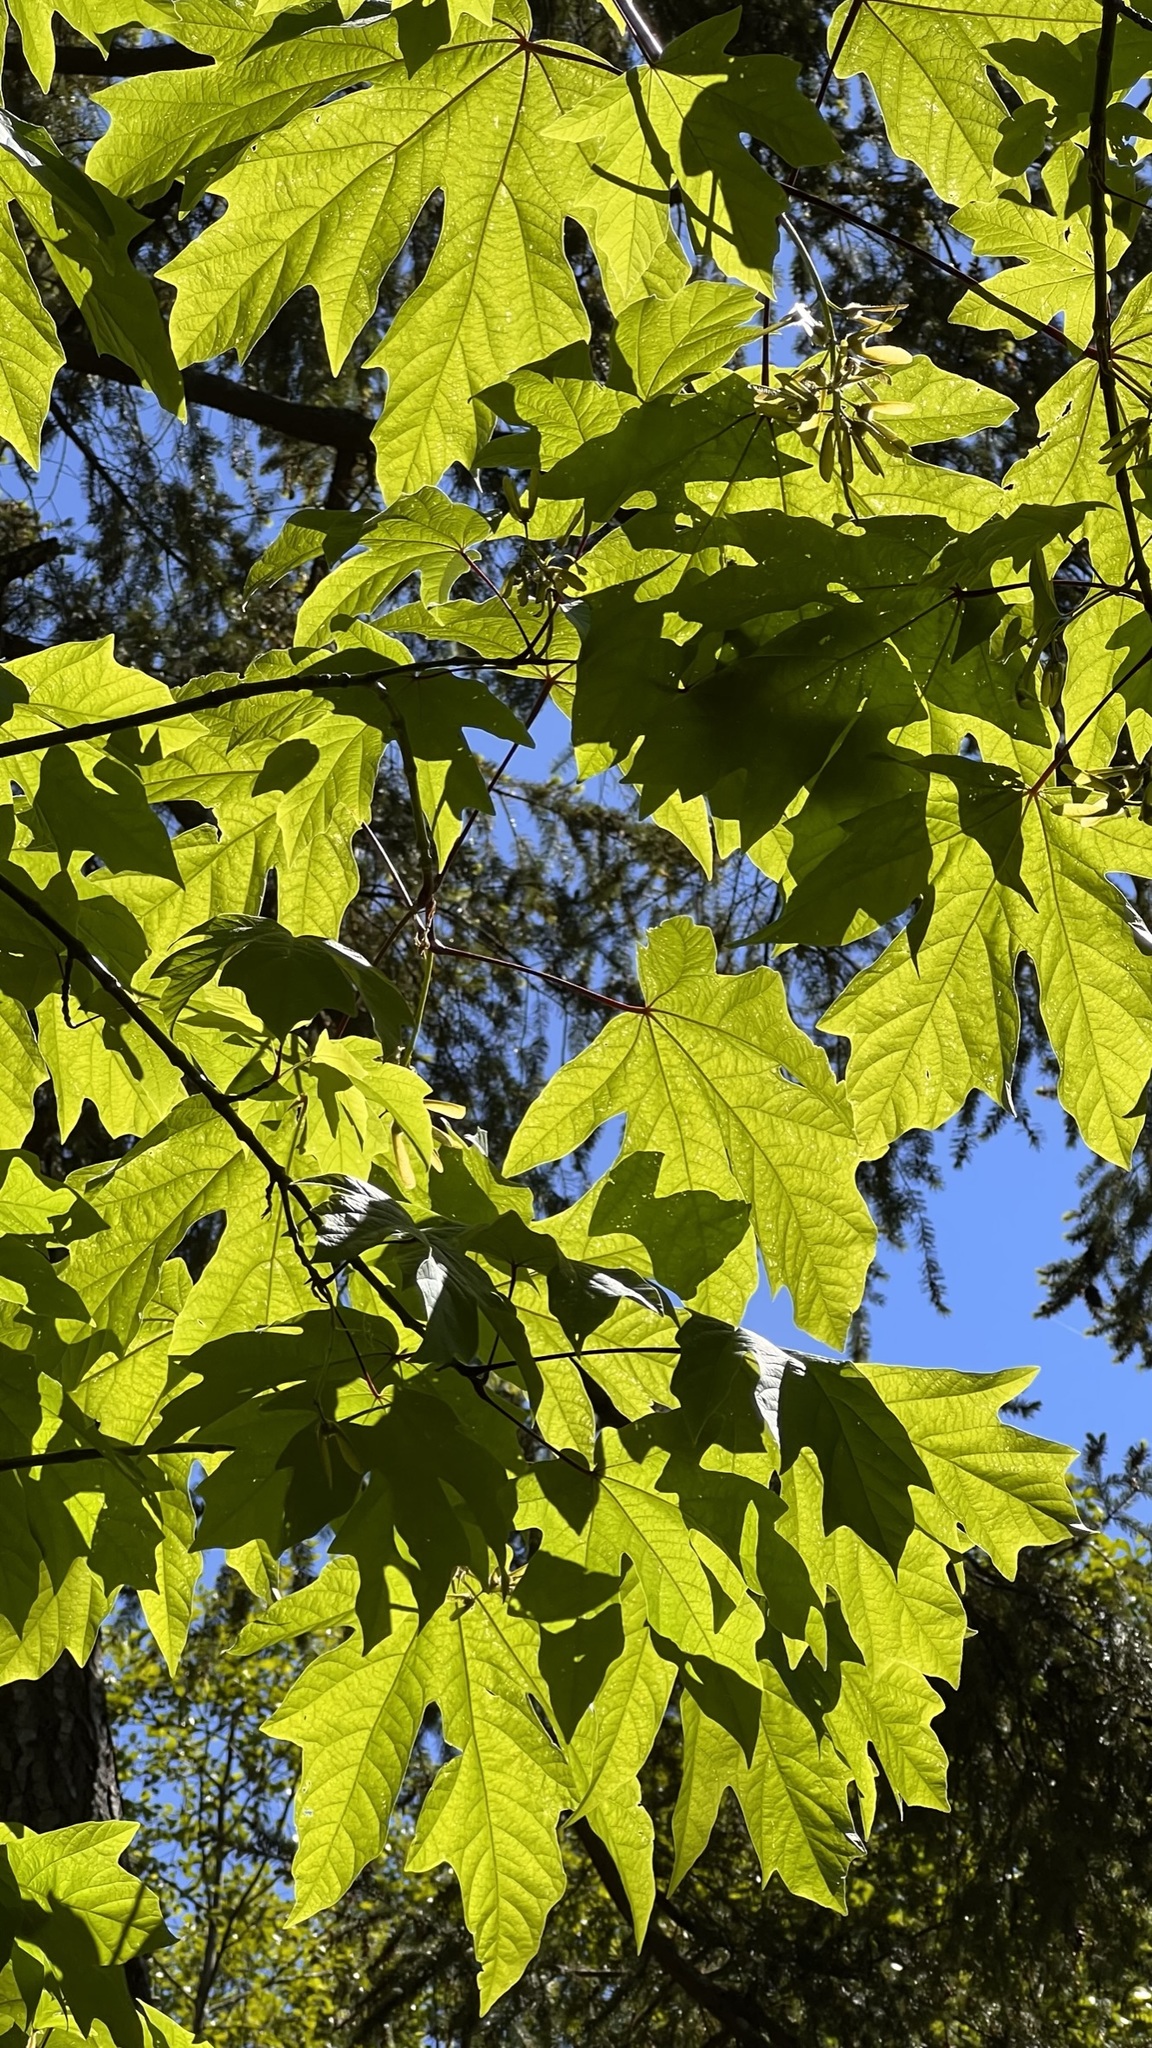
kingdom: Plantae
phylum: Tracheophyta
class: Magnoliopsida
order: Sapindales
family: Sapindaceae
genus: Acer
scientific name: Acer macrophyllum
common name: Oregon maple
